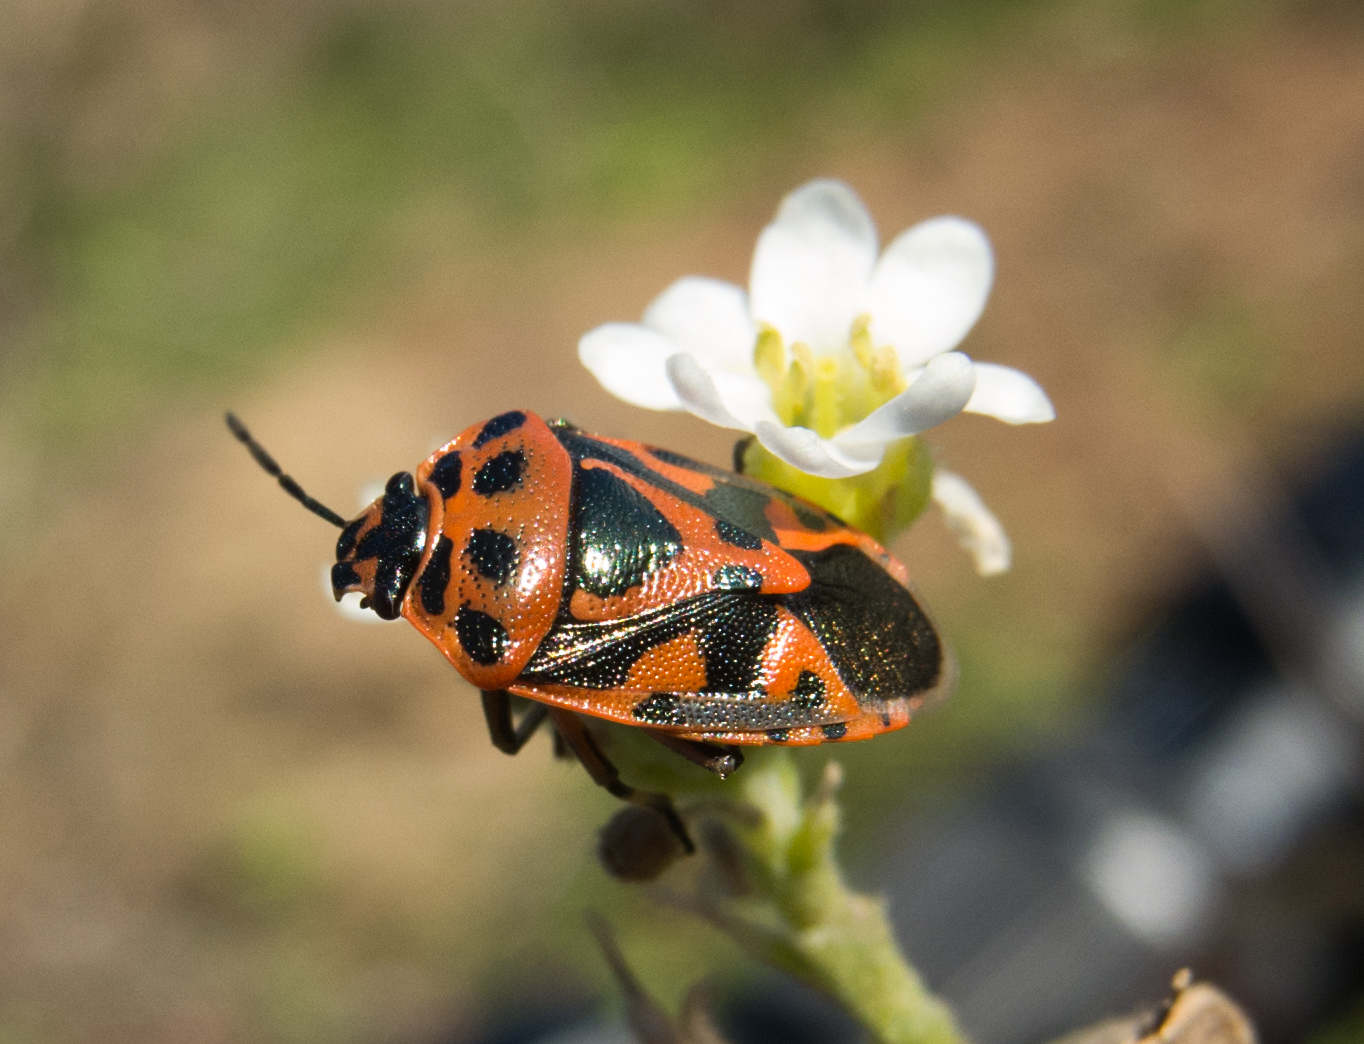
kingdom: Animalia
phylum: Arthropoda
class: Insecta
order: Hemiptera
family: Pentatomidae
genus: Eurydema
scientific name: Eurydema ornata
